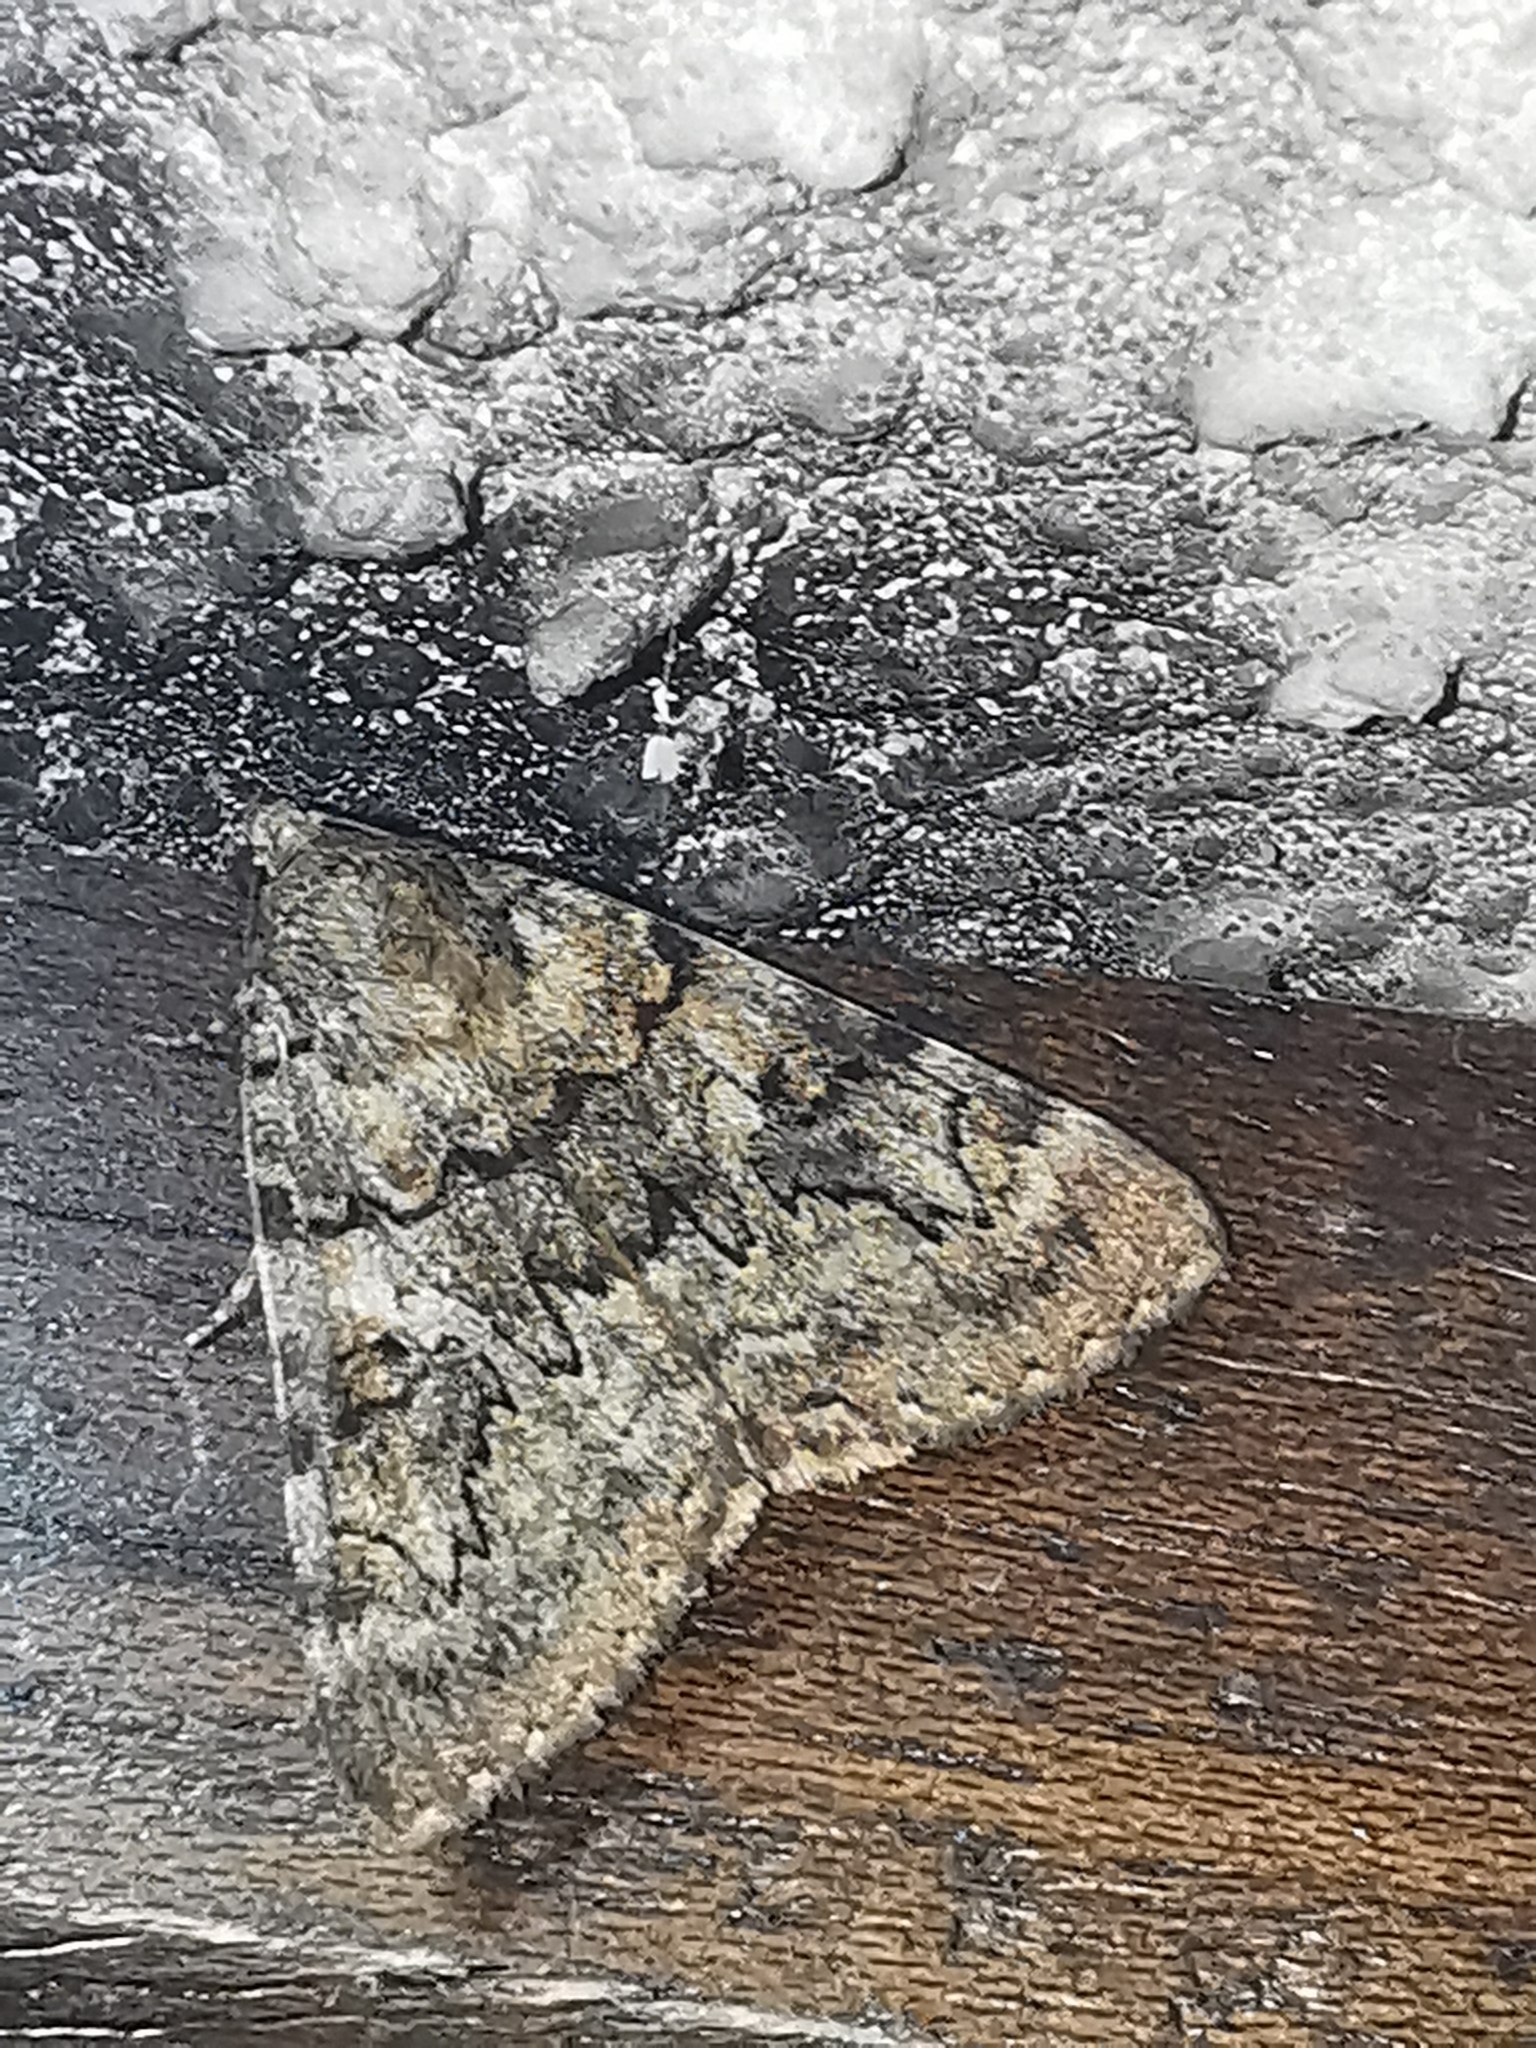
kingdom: Animalia
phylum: Arthropoda
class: Insecta
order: Lepidoptera
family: Erebidae
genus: Catocala
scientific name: Catocala nymphagoga
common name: Oak yellow underwing
